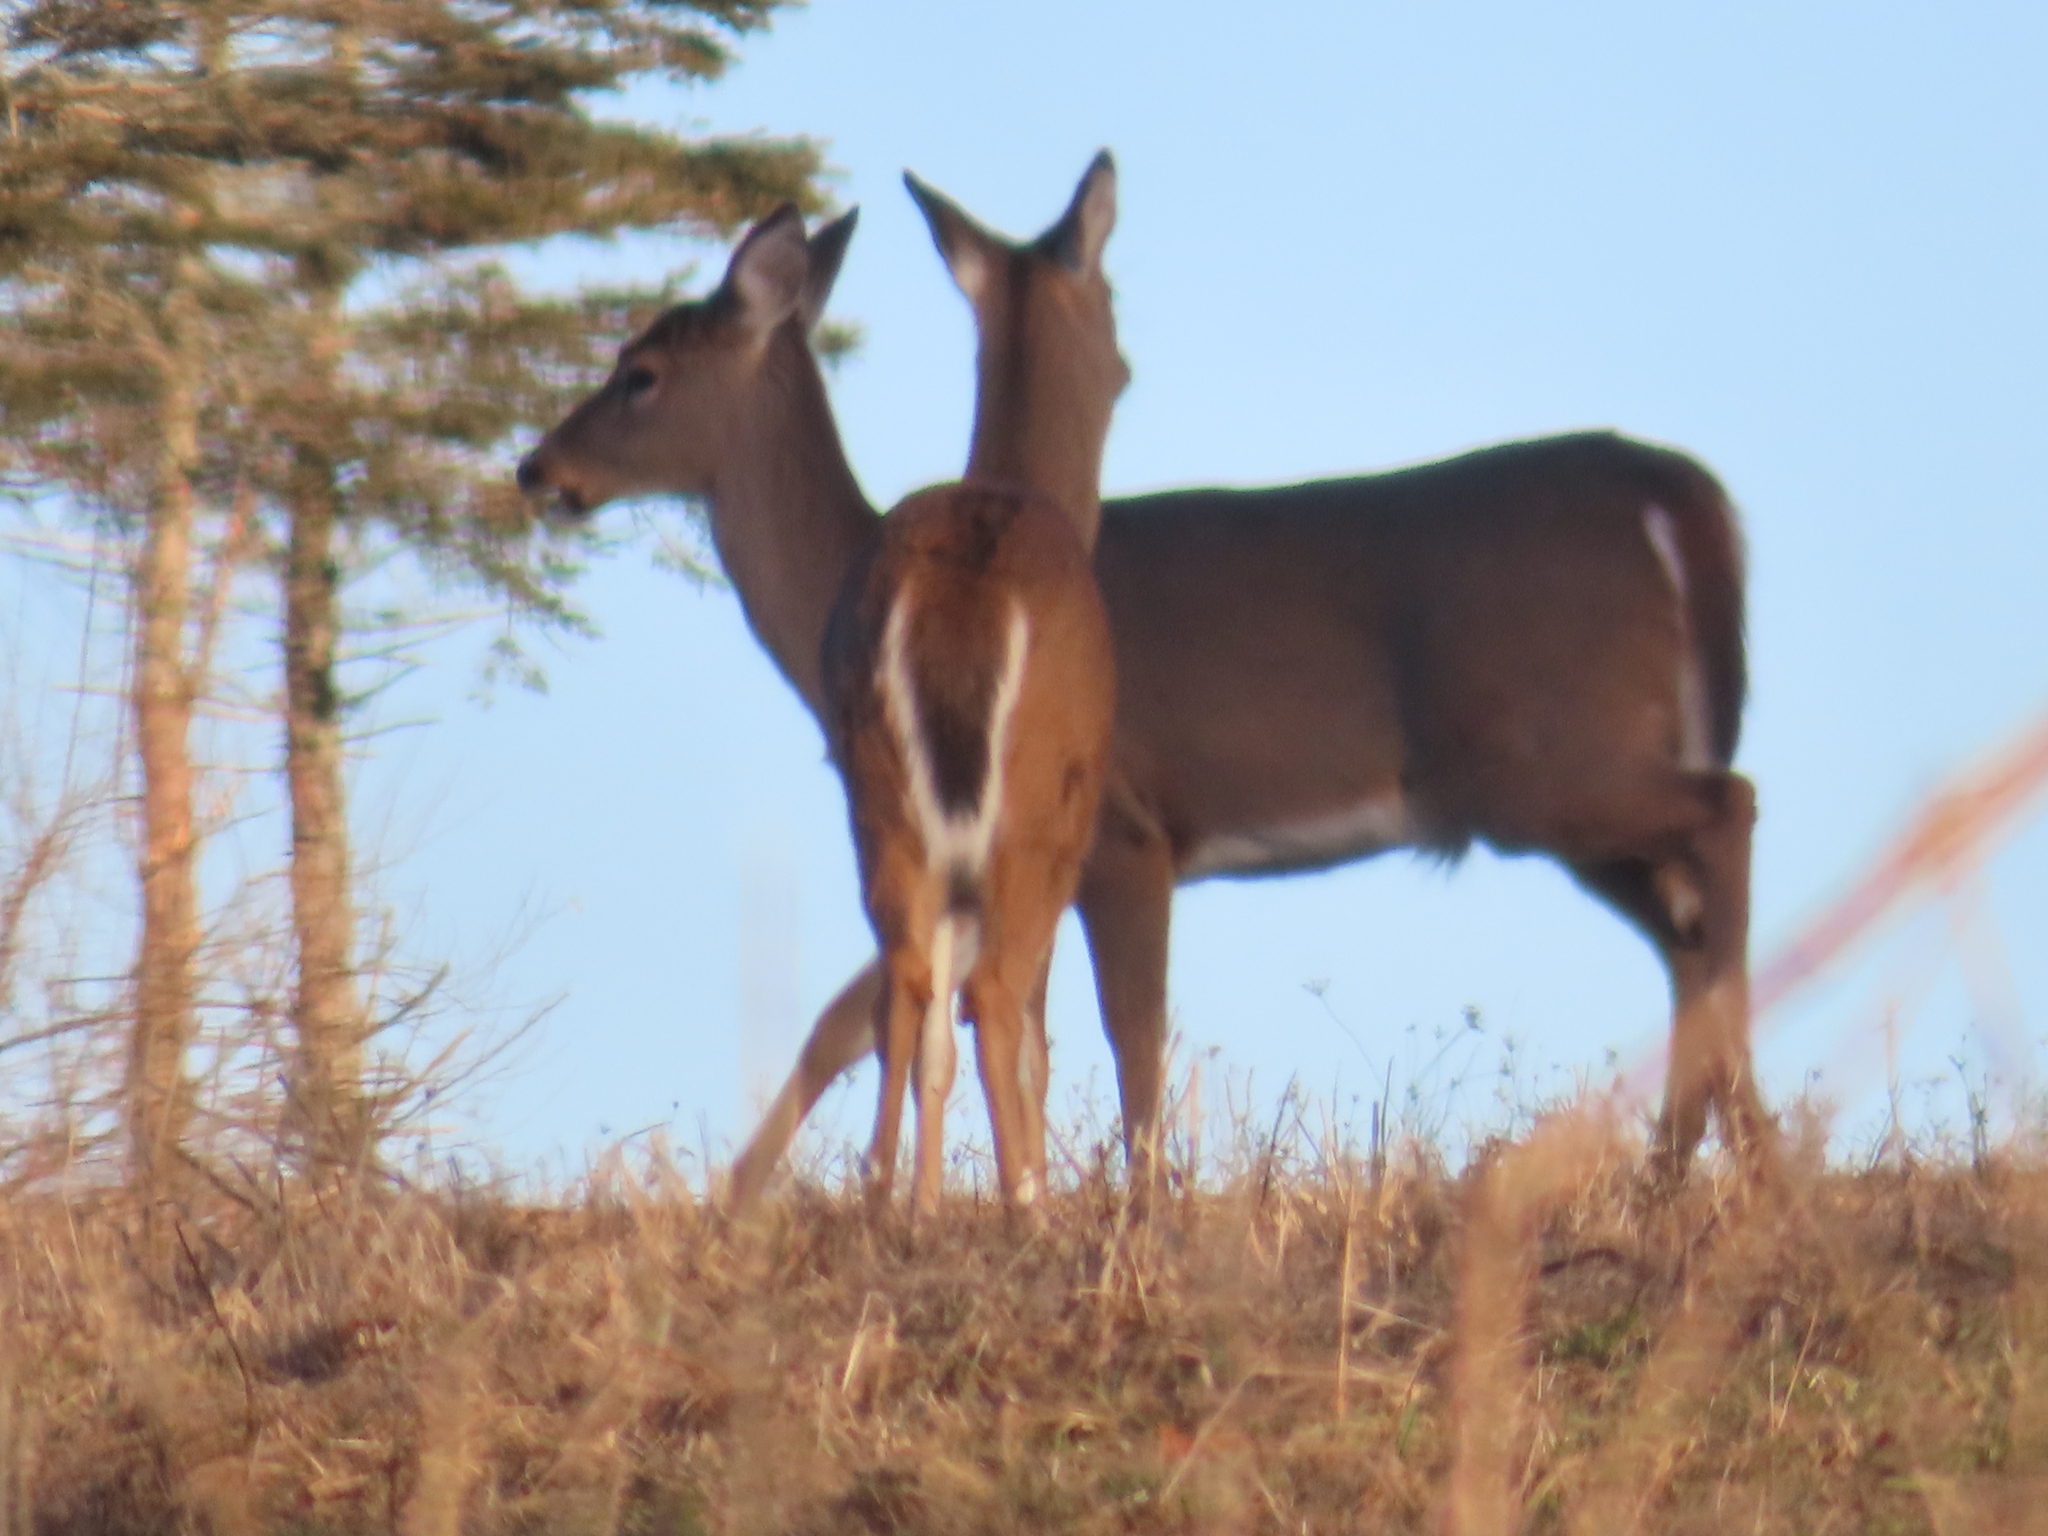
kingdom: Animalia
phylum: Chordata
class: Mammalia
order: Artiodactyla
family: Cervidae
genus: Odocoileus
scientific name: Odocoileus virginianus
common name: White-tailed deer
